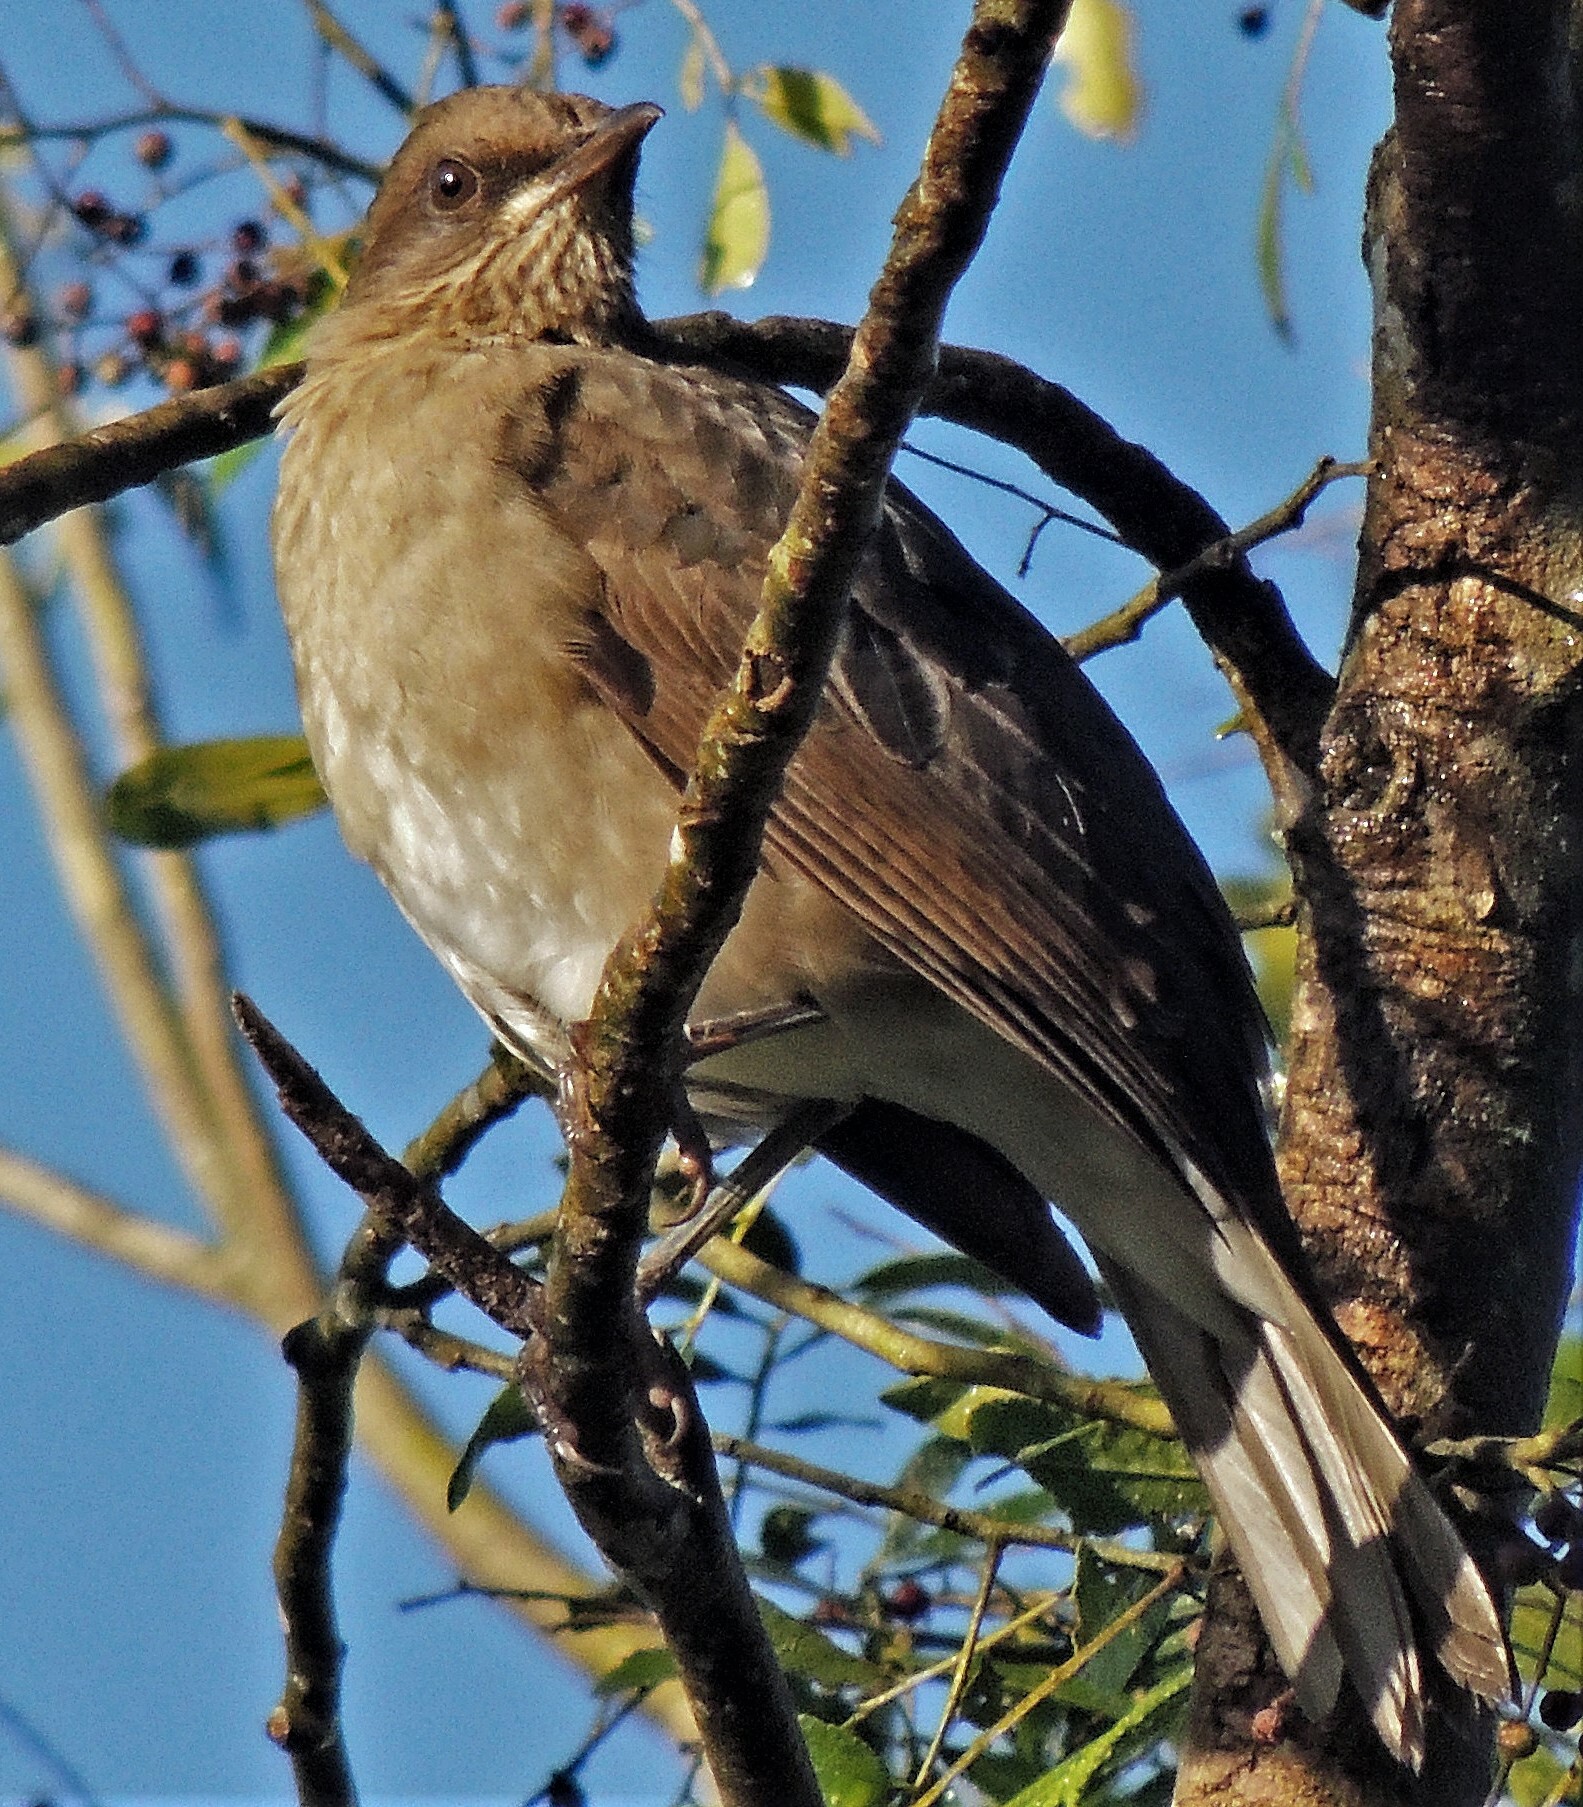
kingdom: Animalia
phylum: Chordata
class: Aves
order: Passeriformes
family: Turdidae
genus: Turdus
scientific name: Turdus amaurochalinus
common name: Creamy-bellied thrush
